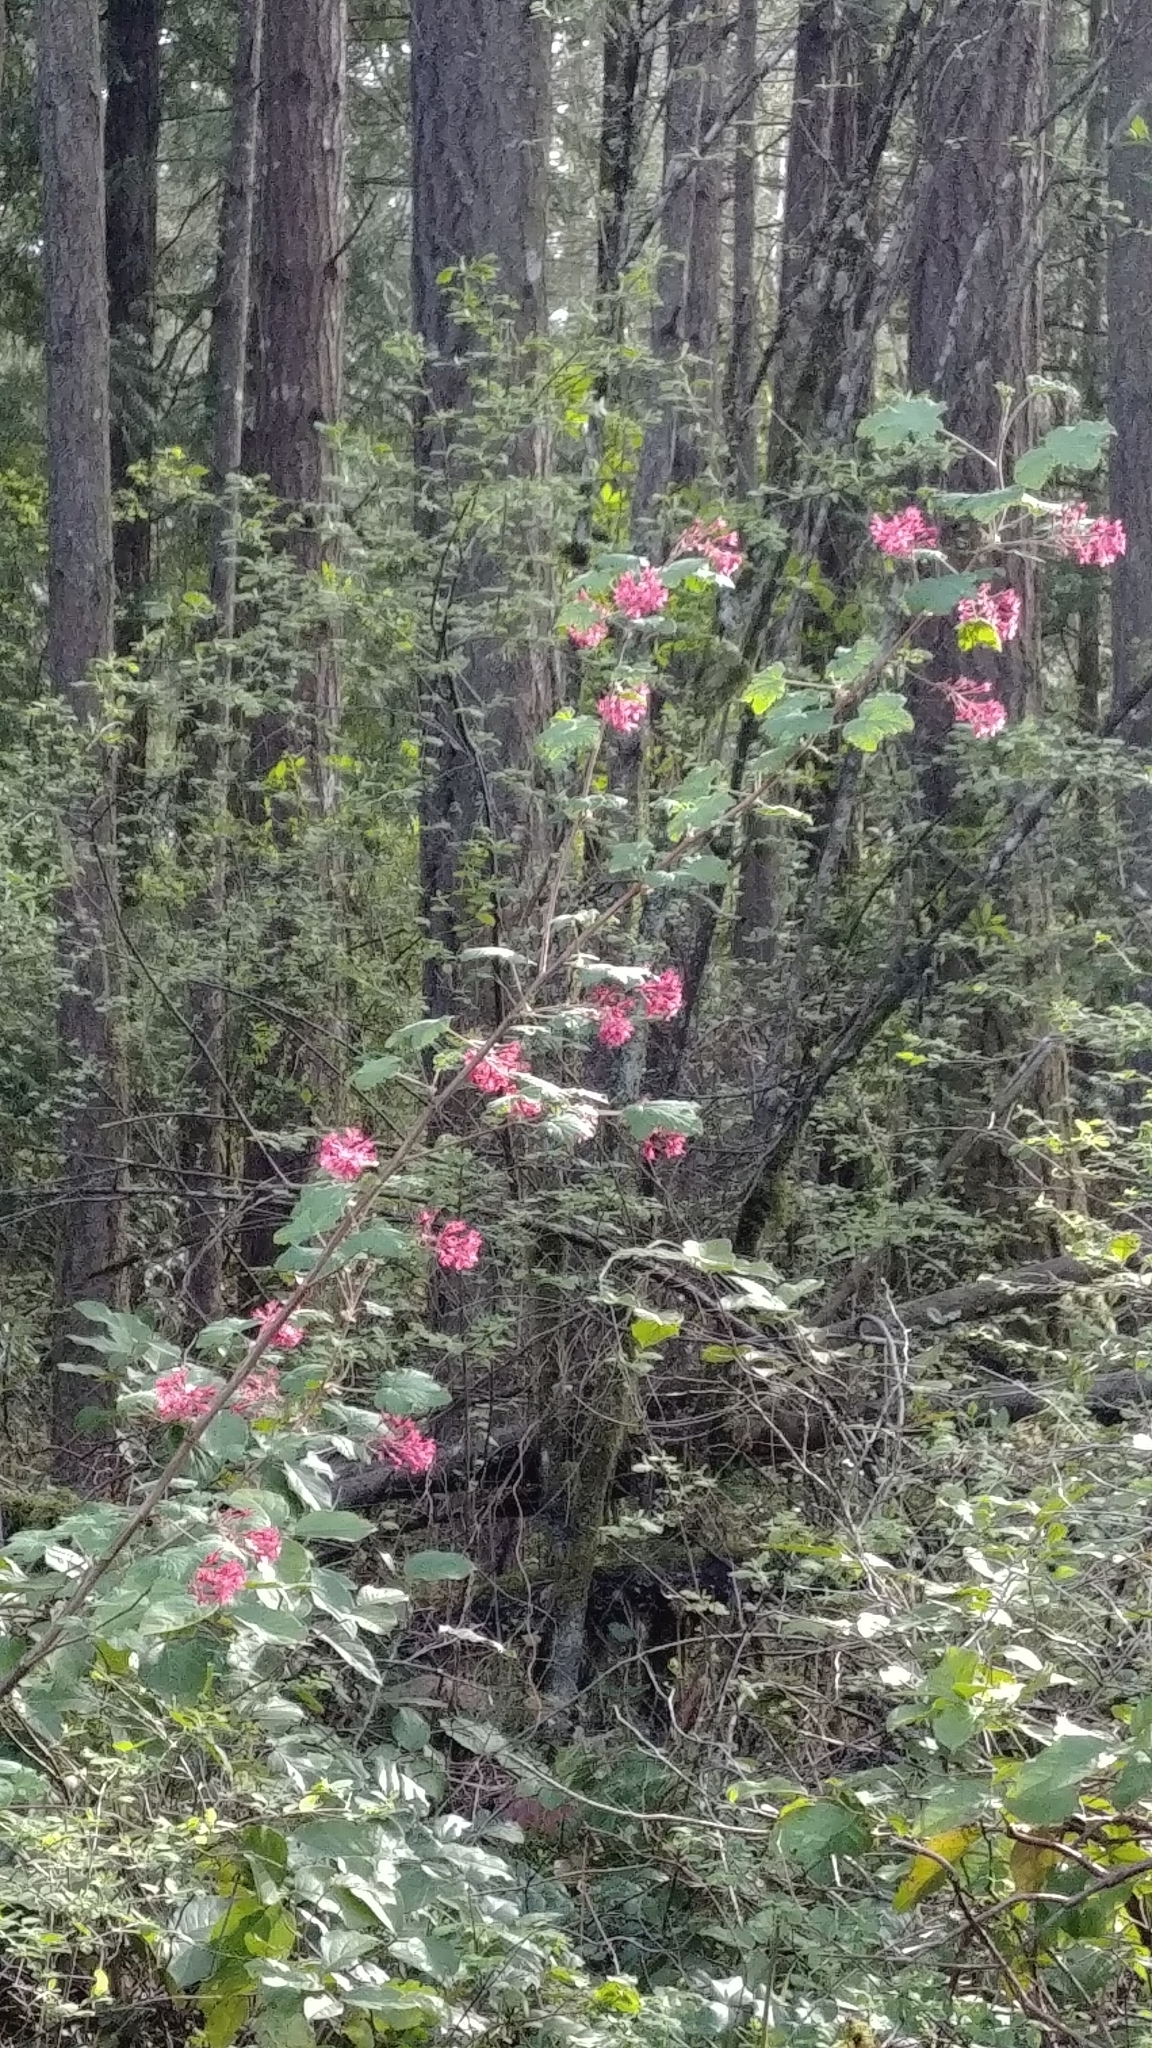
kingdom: Plantae
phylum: Tracheophyta
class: Magnoliopsida
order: Saxifragales
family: Grossulariaceae
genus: Ribes
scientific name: Ribes sanguineum
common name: Flowering currant
